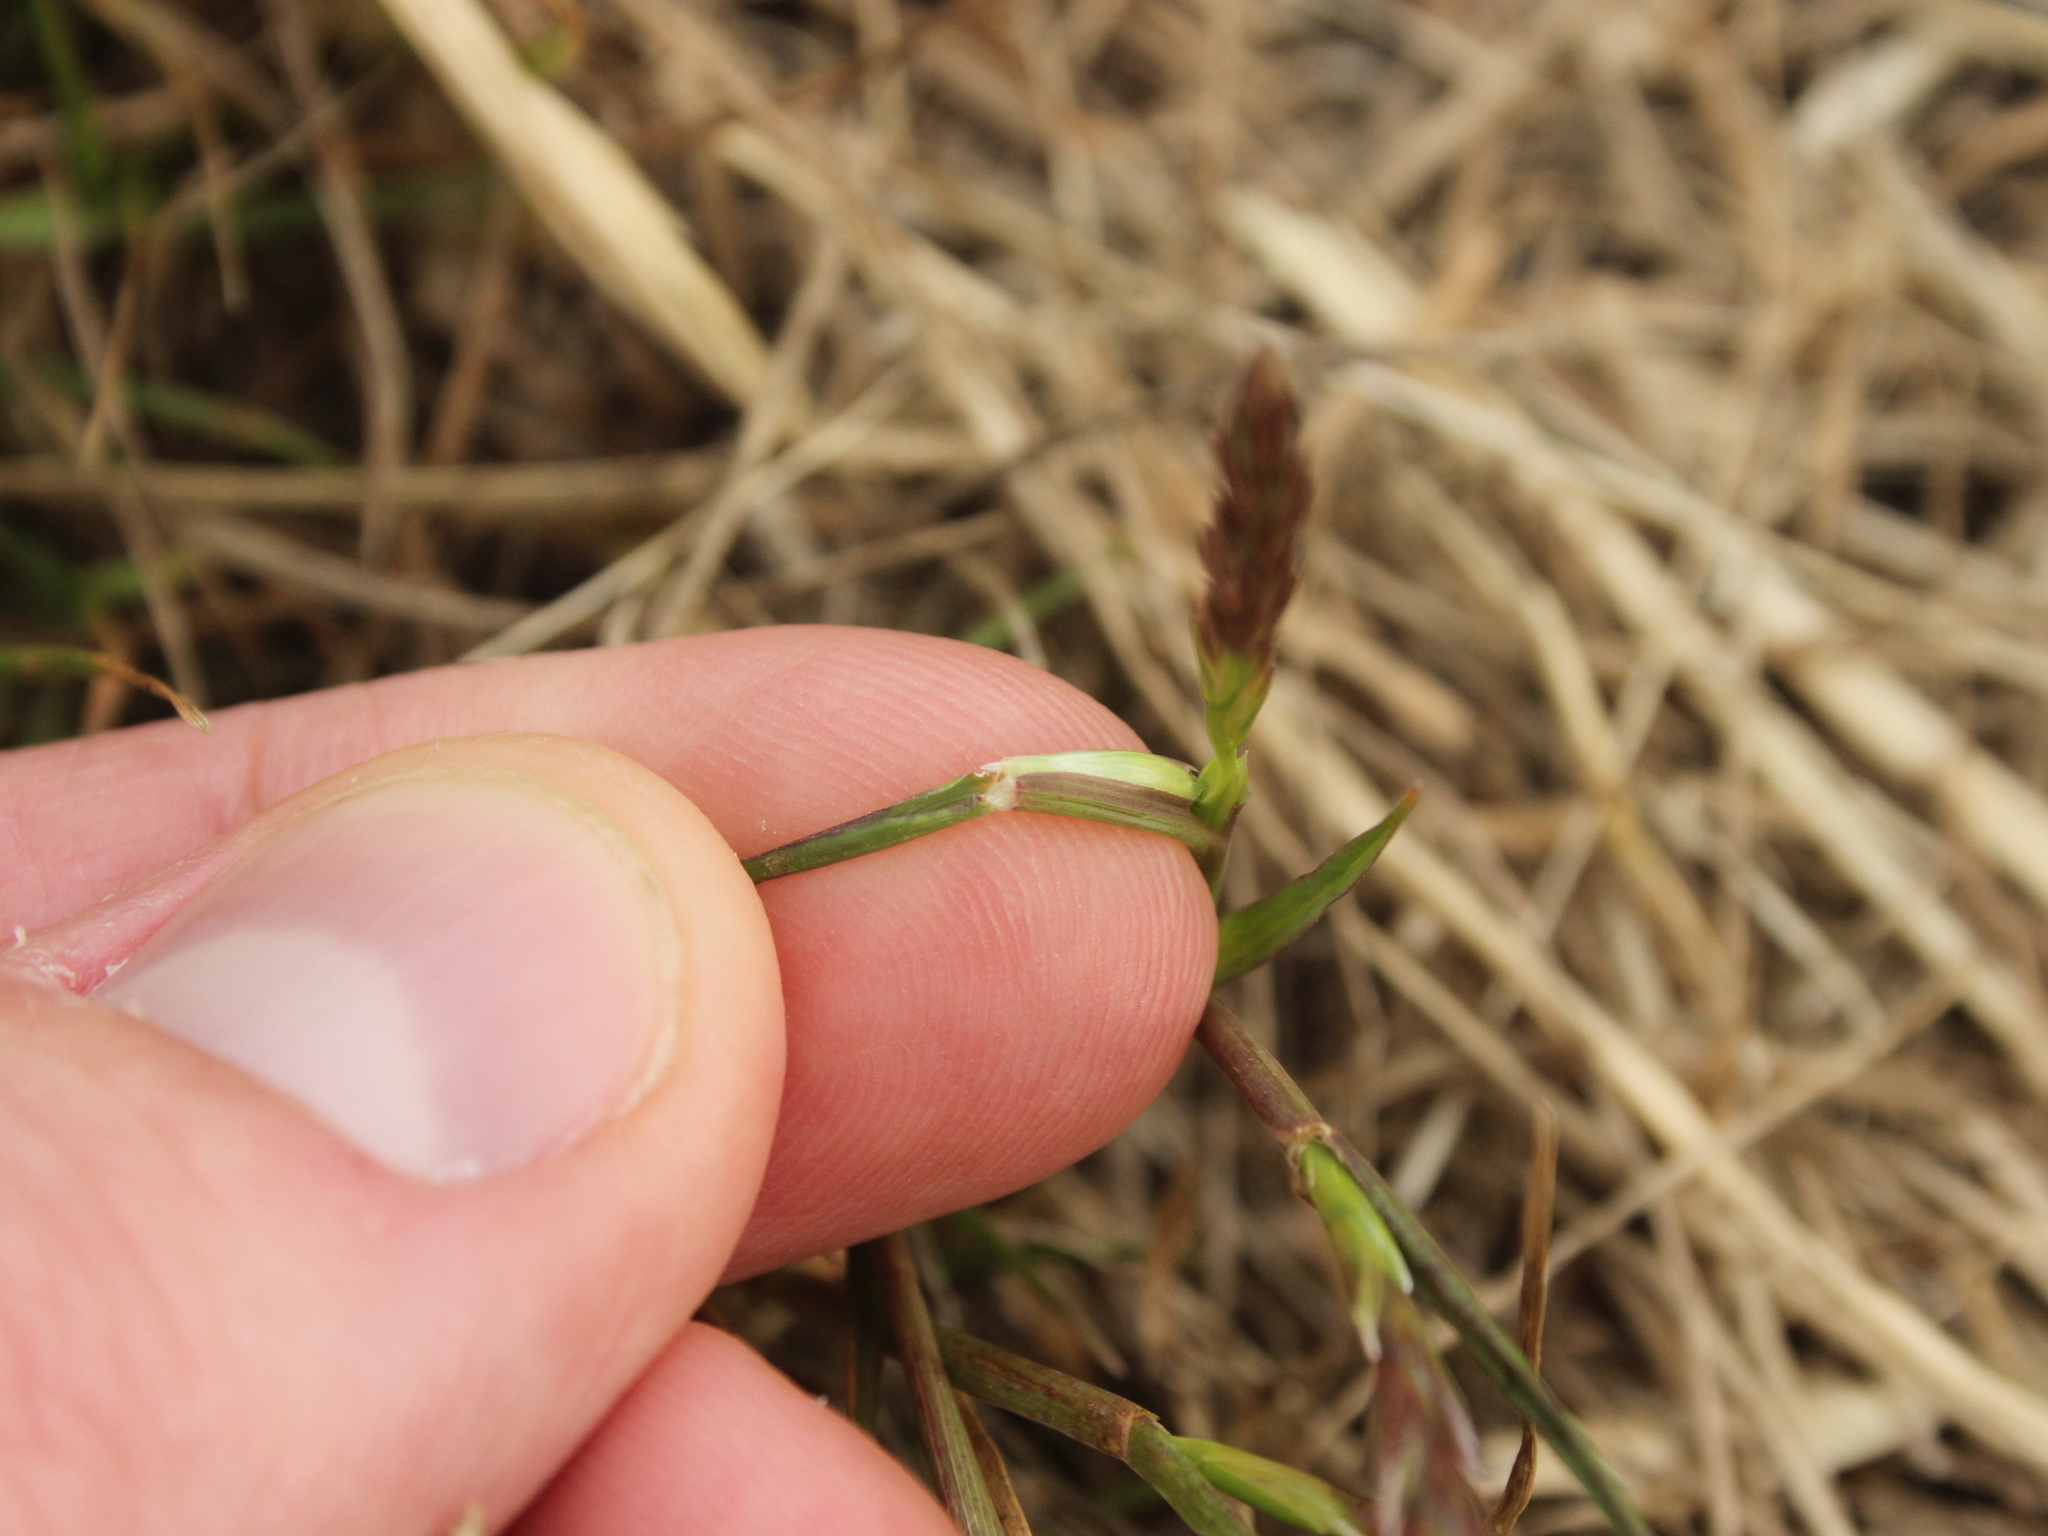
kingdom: Plantae
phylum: Tracheophyta
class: Liliopsida
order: Poales
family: Poaceae
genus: Lolium
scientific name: Lolium rigidum
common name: Wimmera ryegrass
